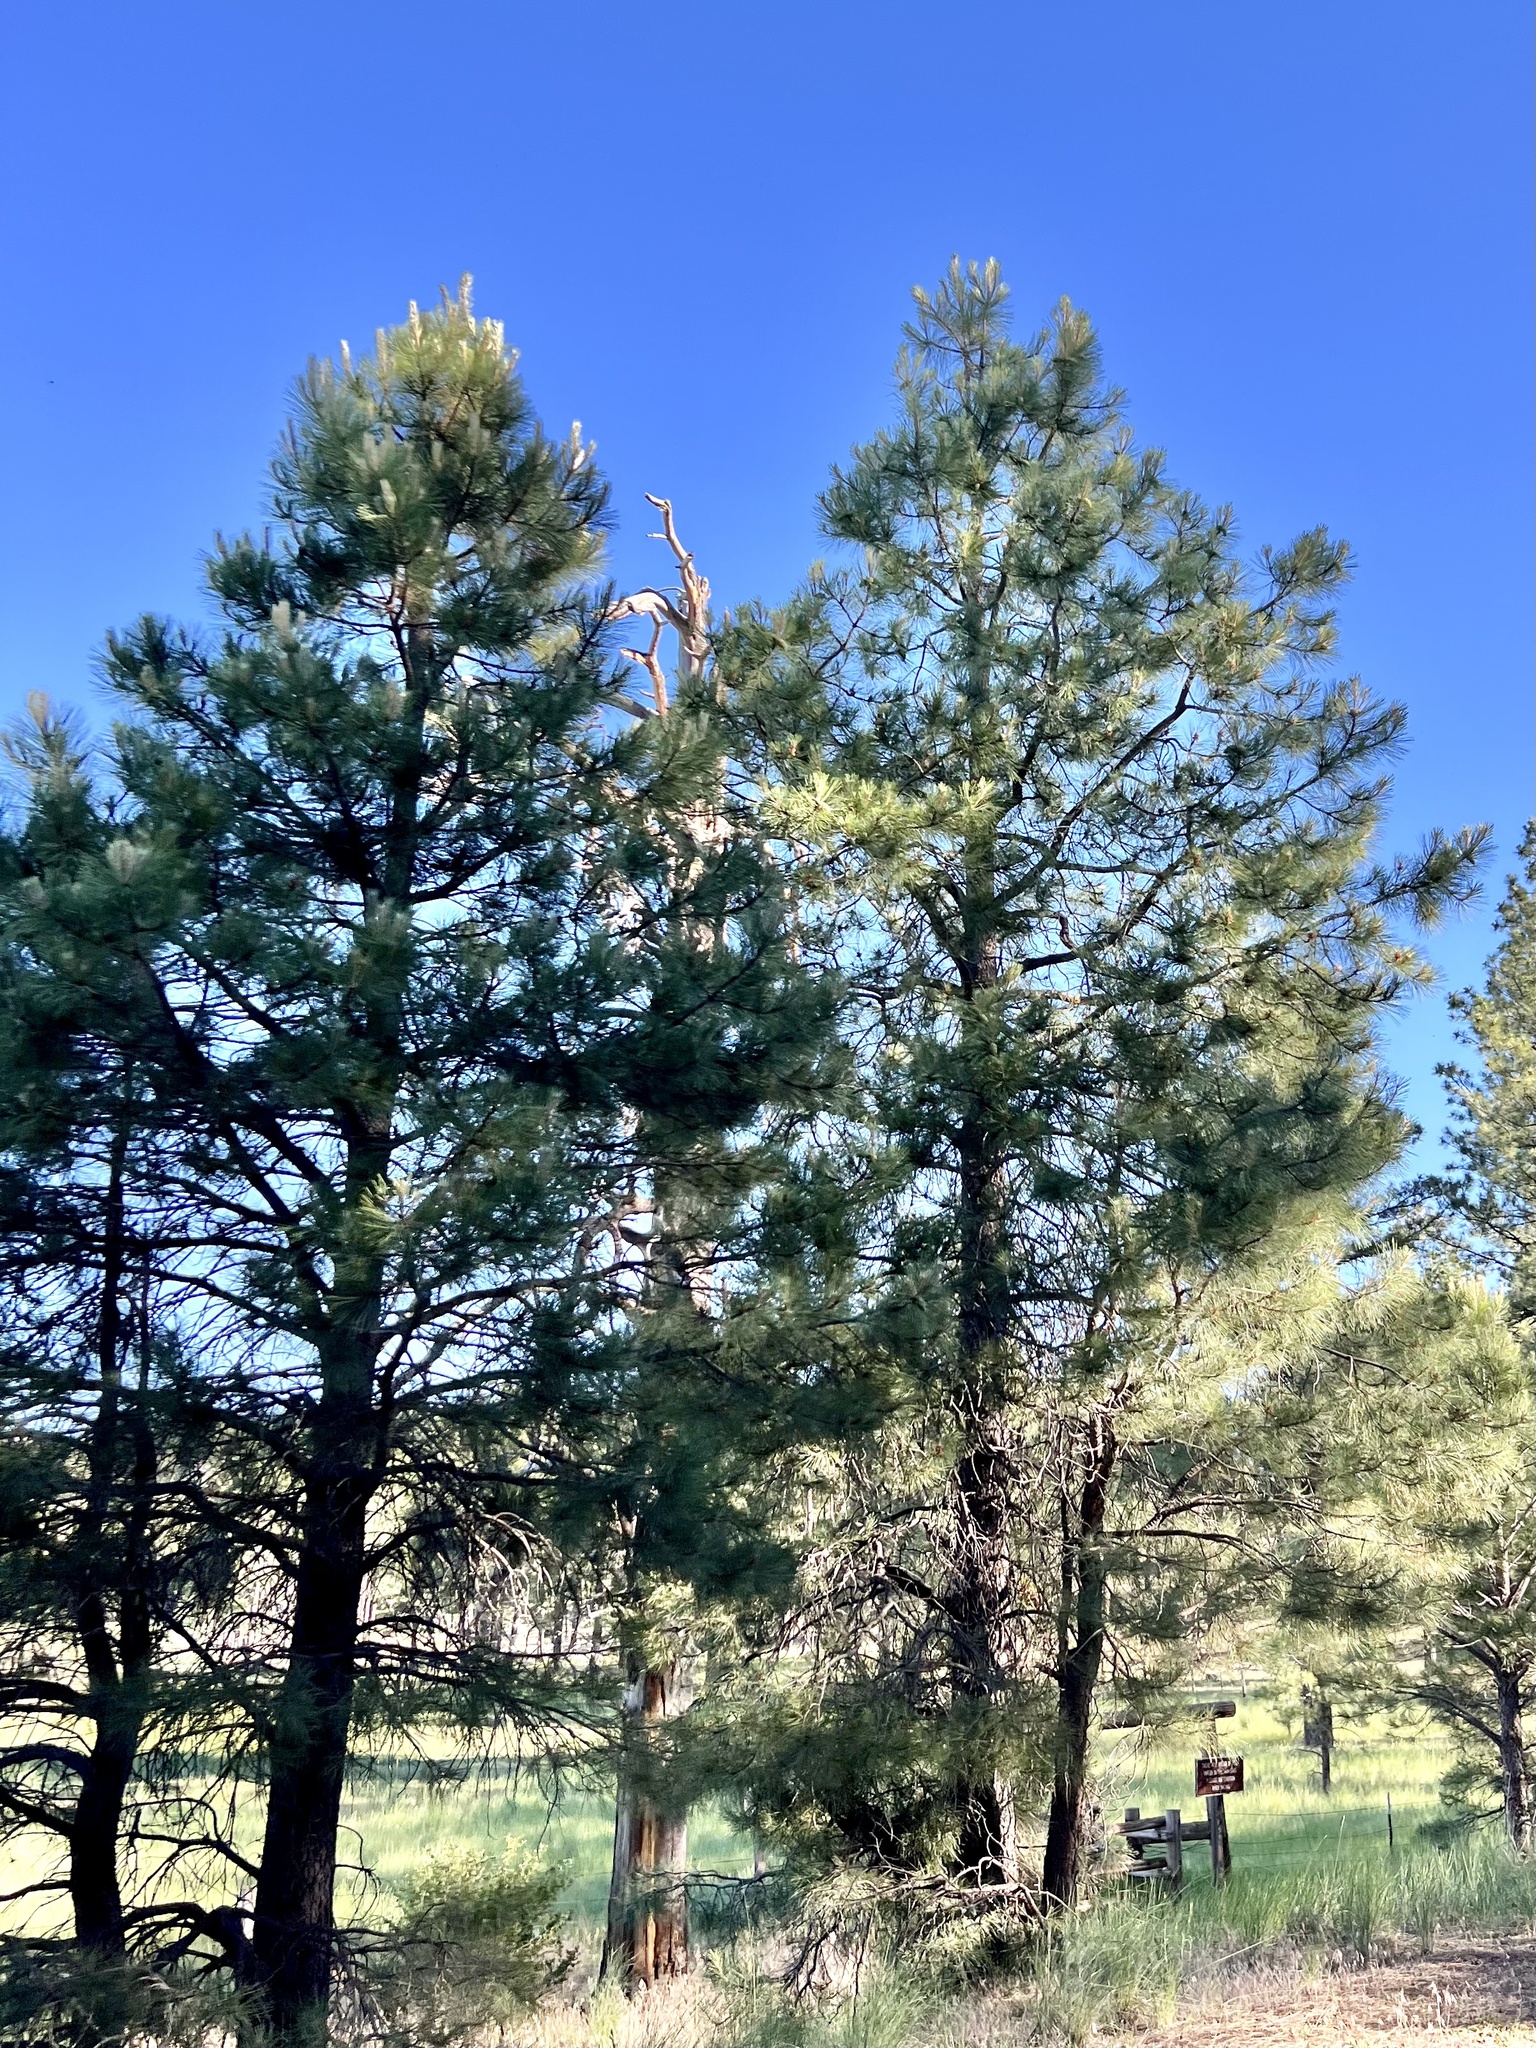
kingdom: Plantae
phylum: Tracheophyta
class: Pinopsida
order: Pinales
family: Pinaceae
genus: Pinus
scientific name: Pinus ponderosa
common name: Western yellow-pine
